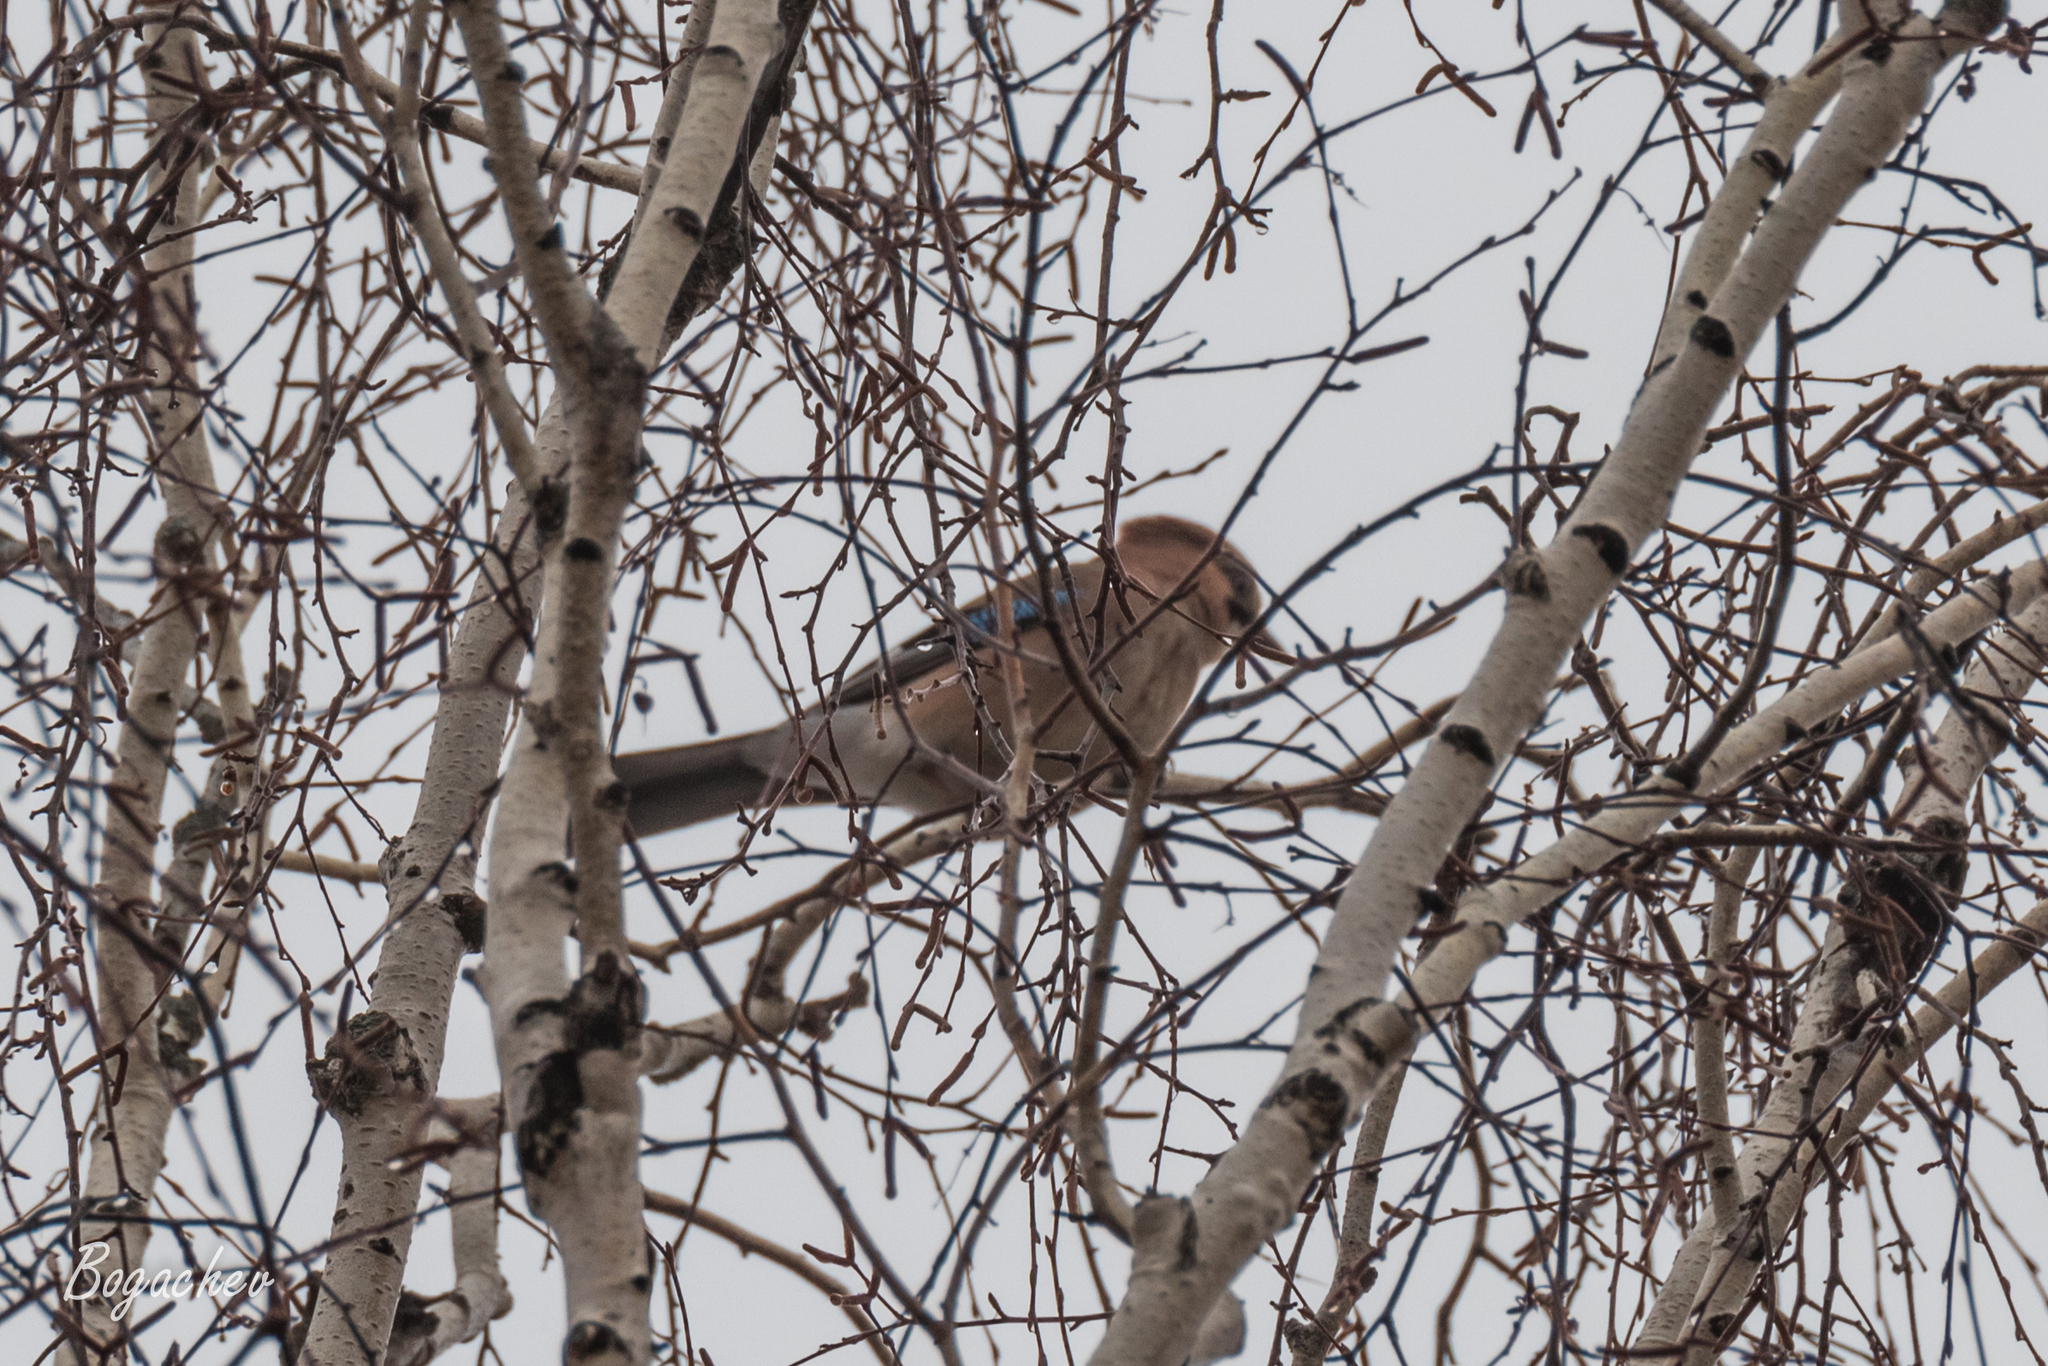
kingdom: Animalia
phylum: Chordata
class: Aves
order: Passeriformes
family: Corvidae
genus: Garrulus
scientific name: Garrulus glandarius
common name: Eurasian jay
